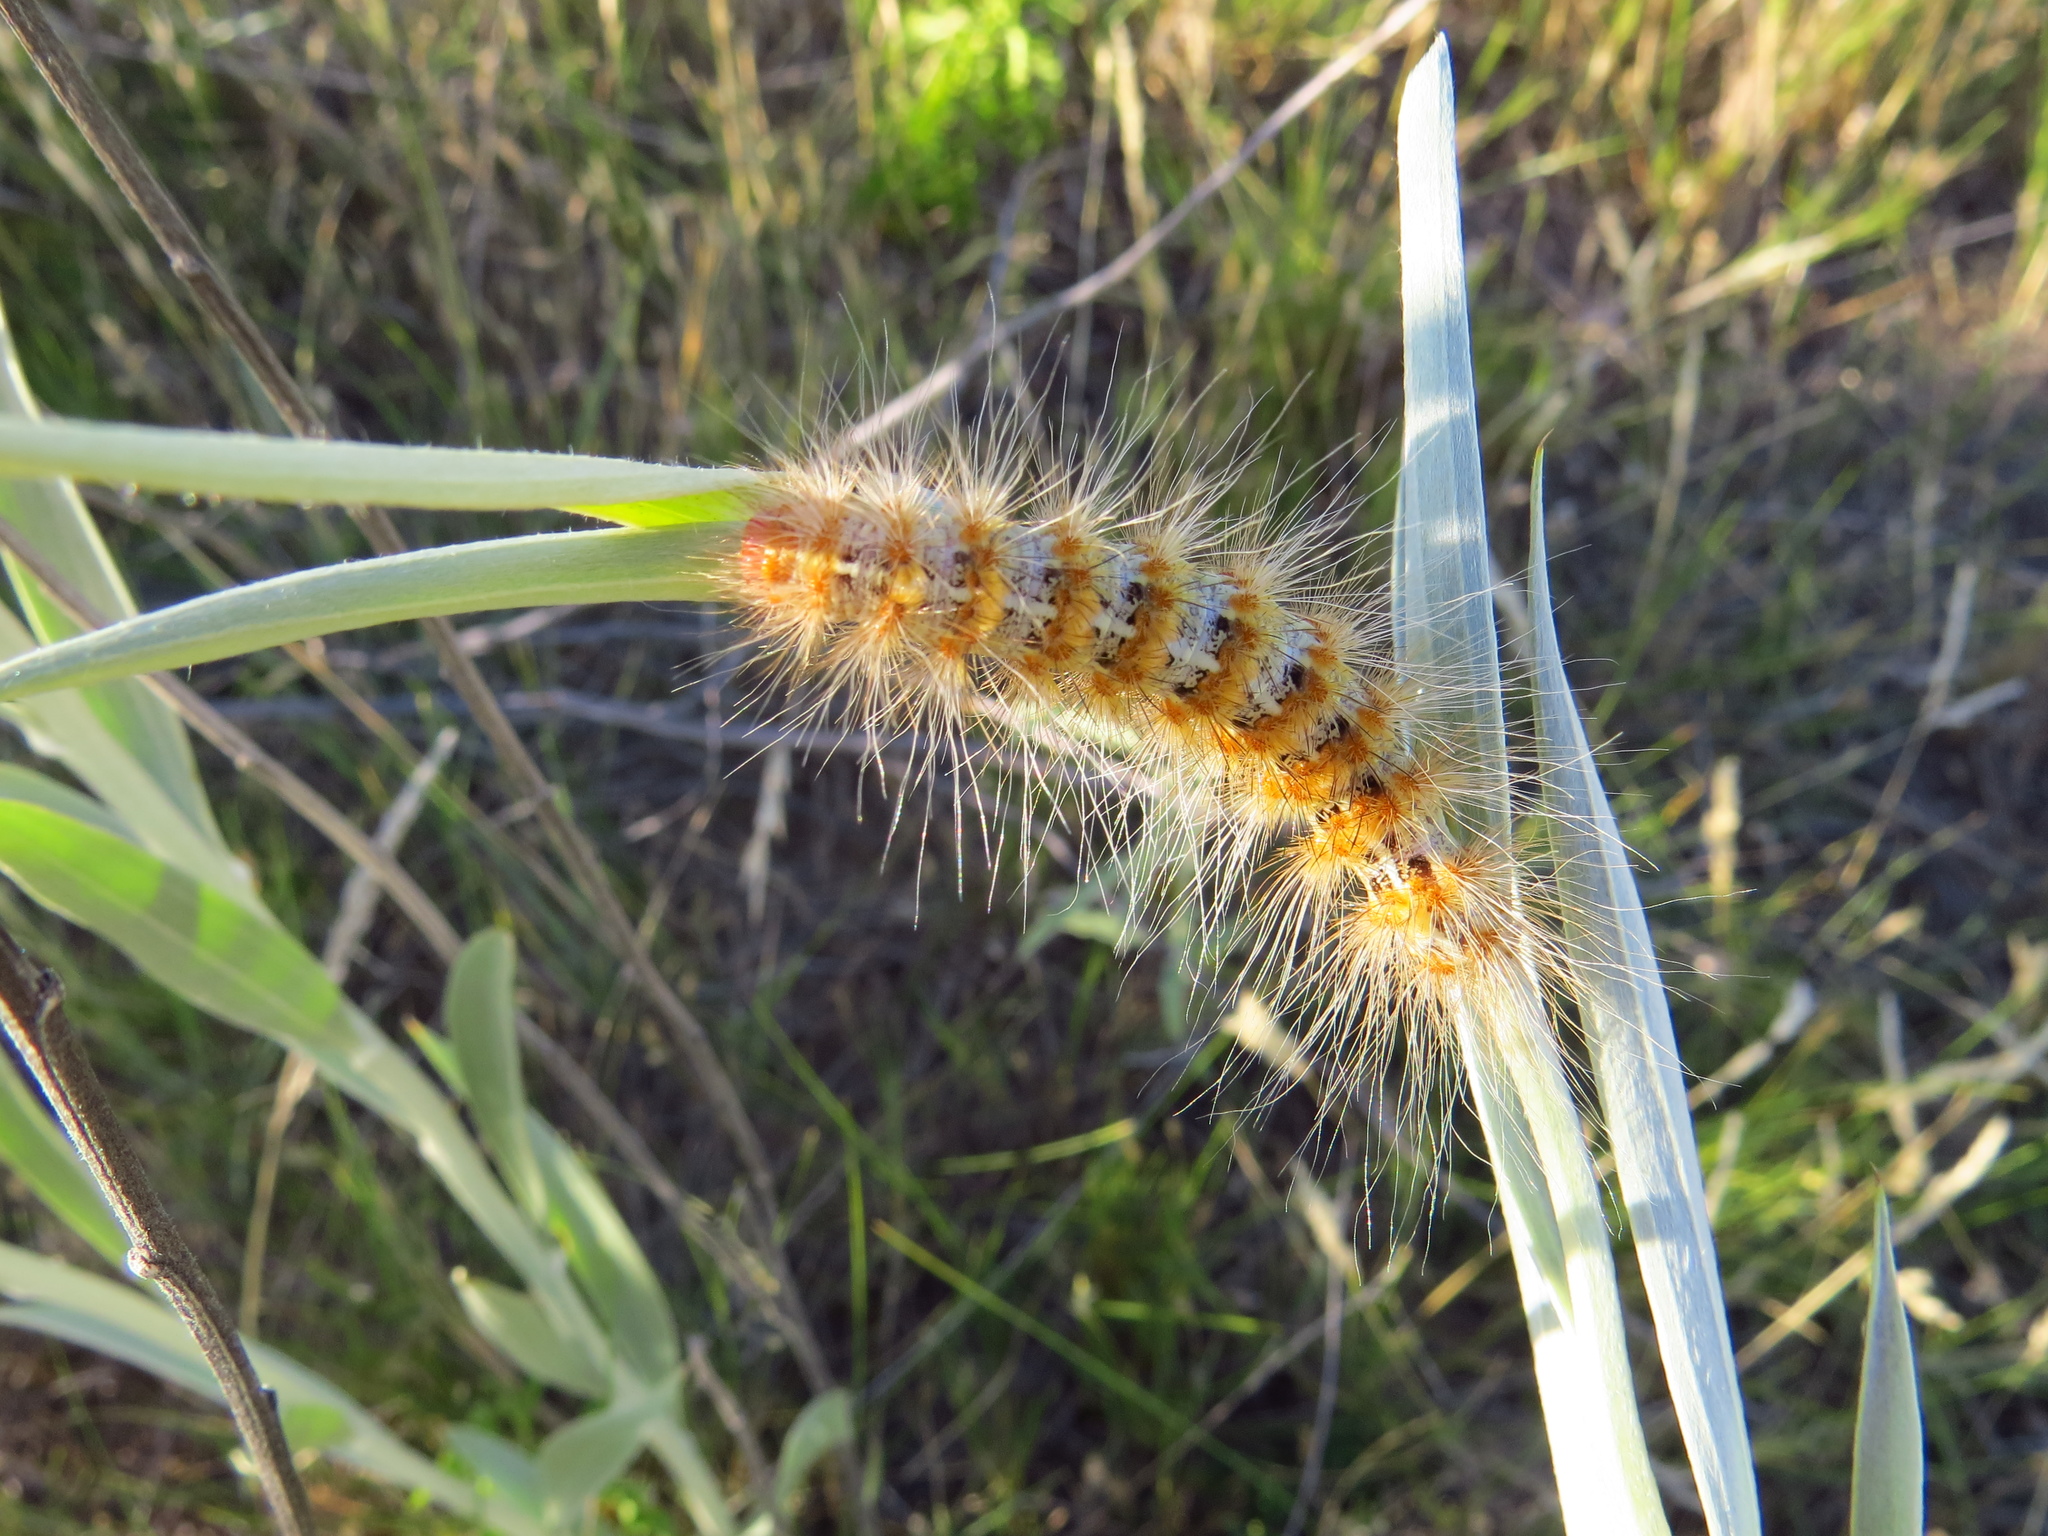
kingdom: Animalia
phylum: Arthropoda
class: Insecta
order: Lepidoptera
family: Erebidae
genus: Paracles
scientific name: Paracles deserticola
